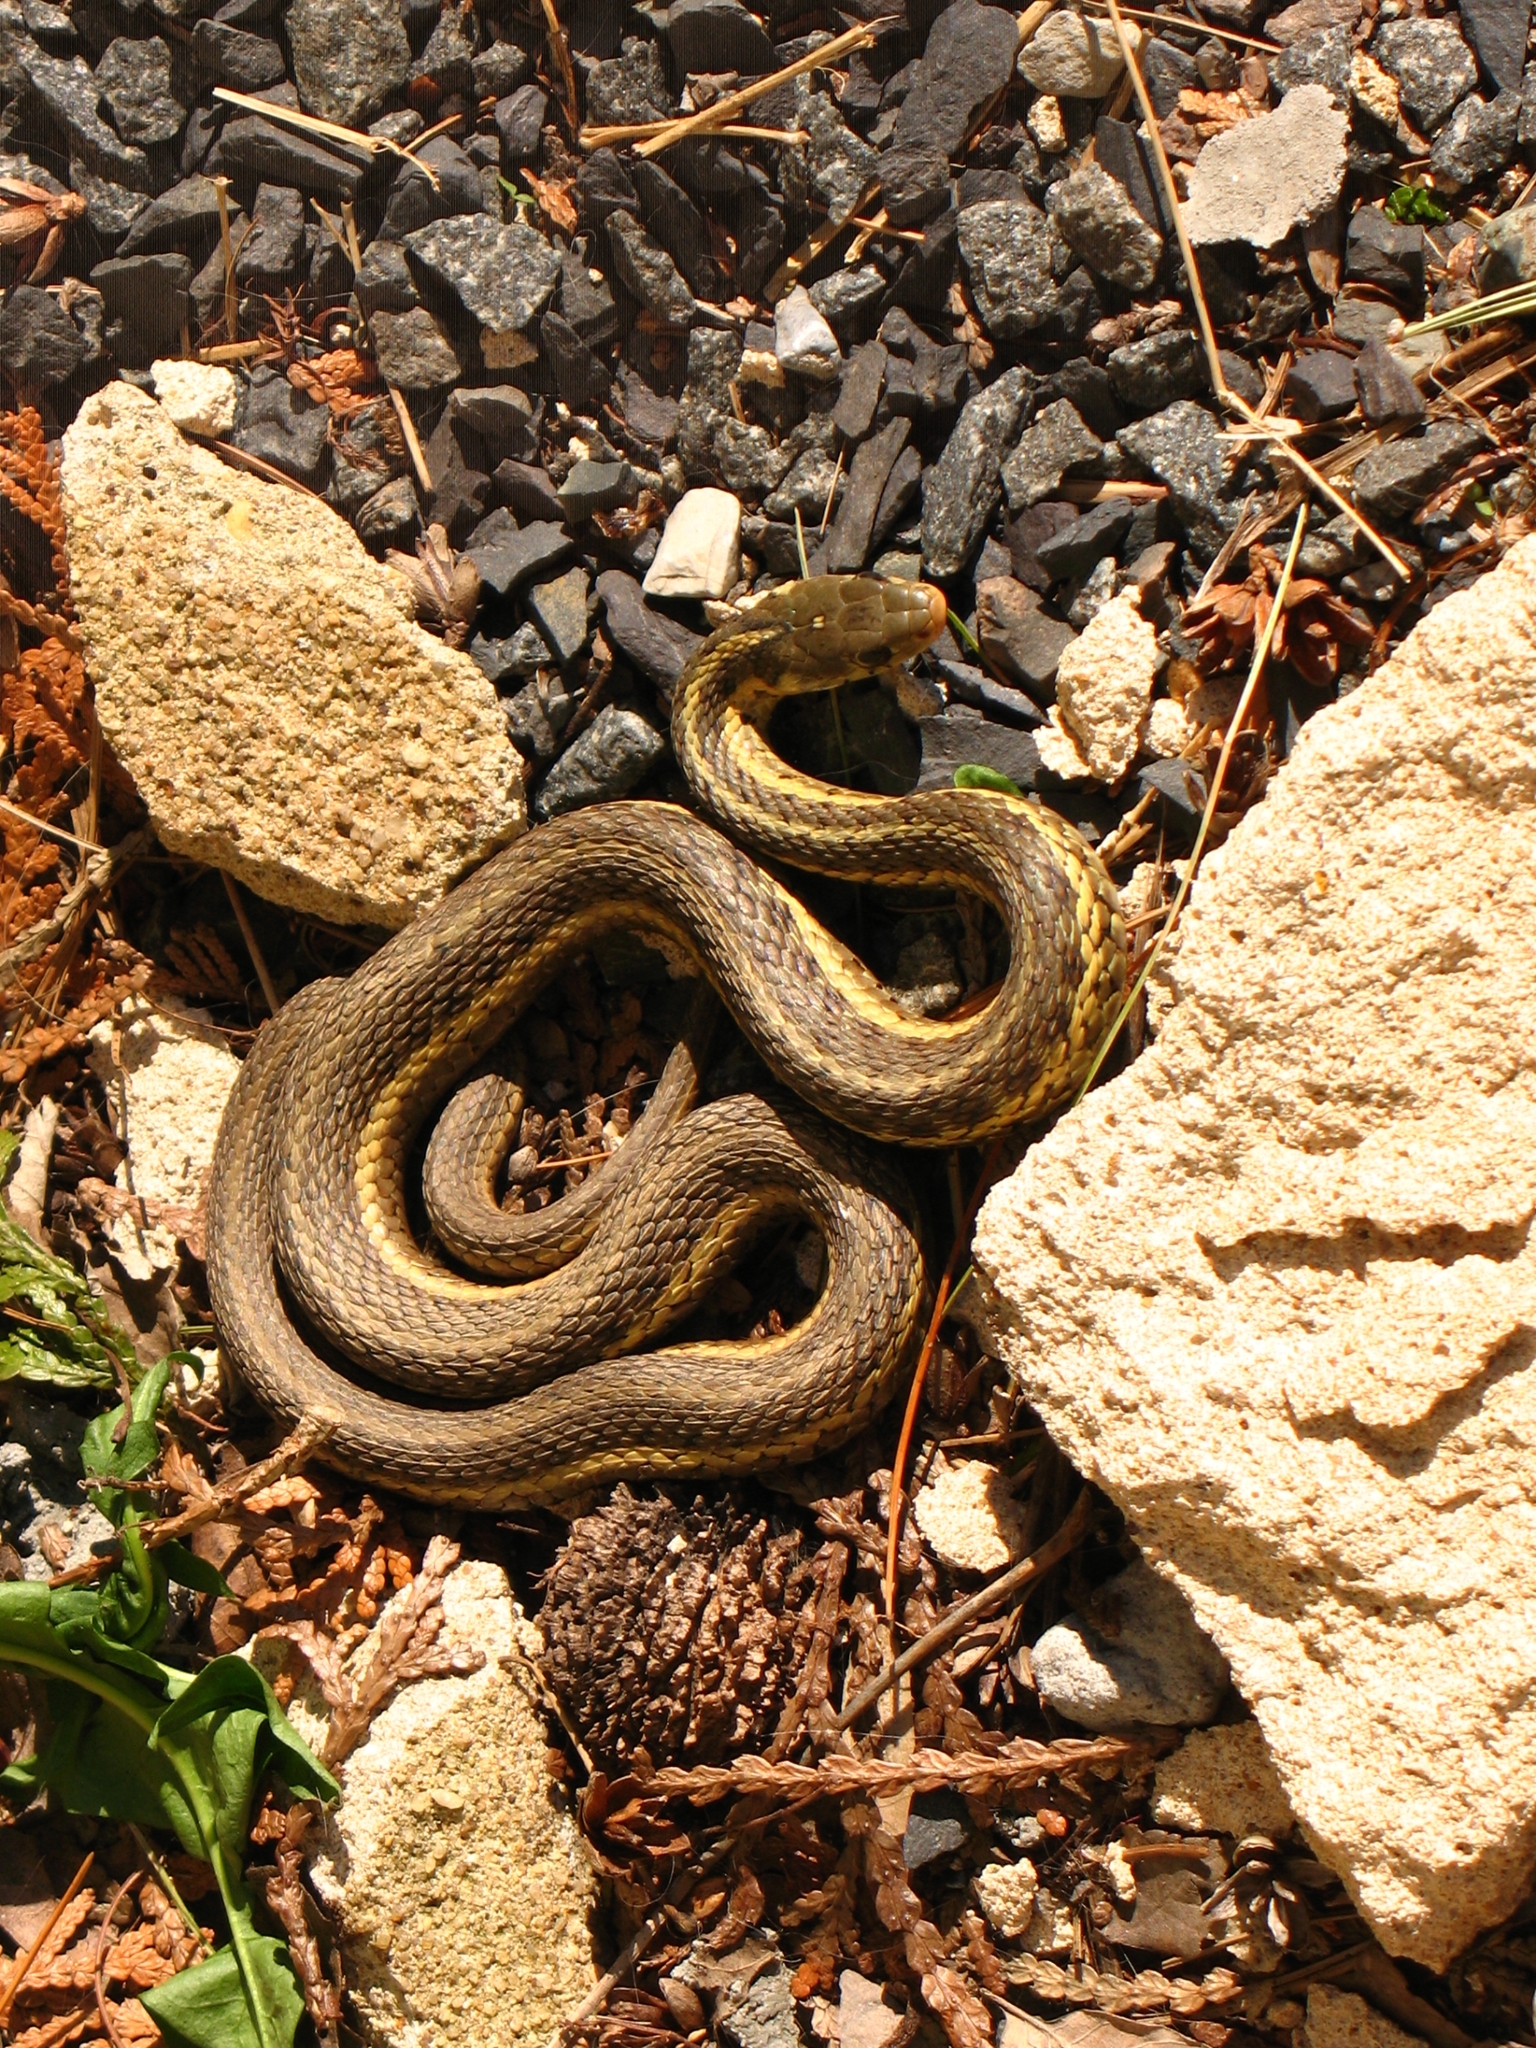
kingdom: Animalia
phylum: Chordata
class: Squamata
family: Colubridae
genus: Thamnophis
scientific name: Thamnophis sirtalis
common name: Common garter snake
